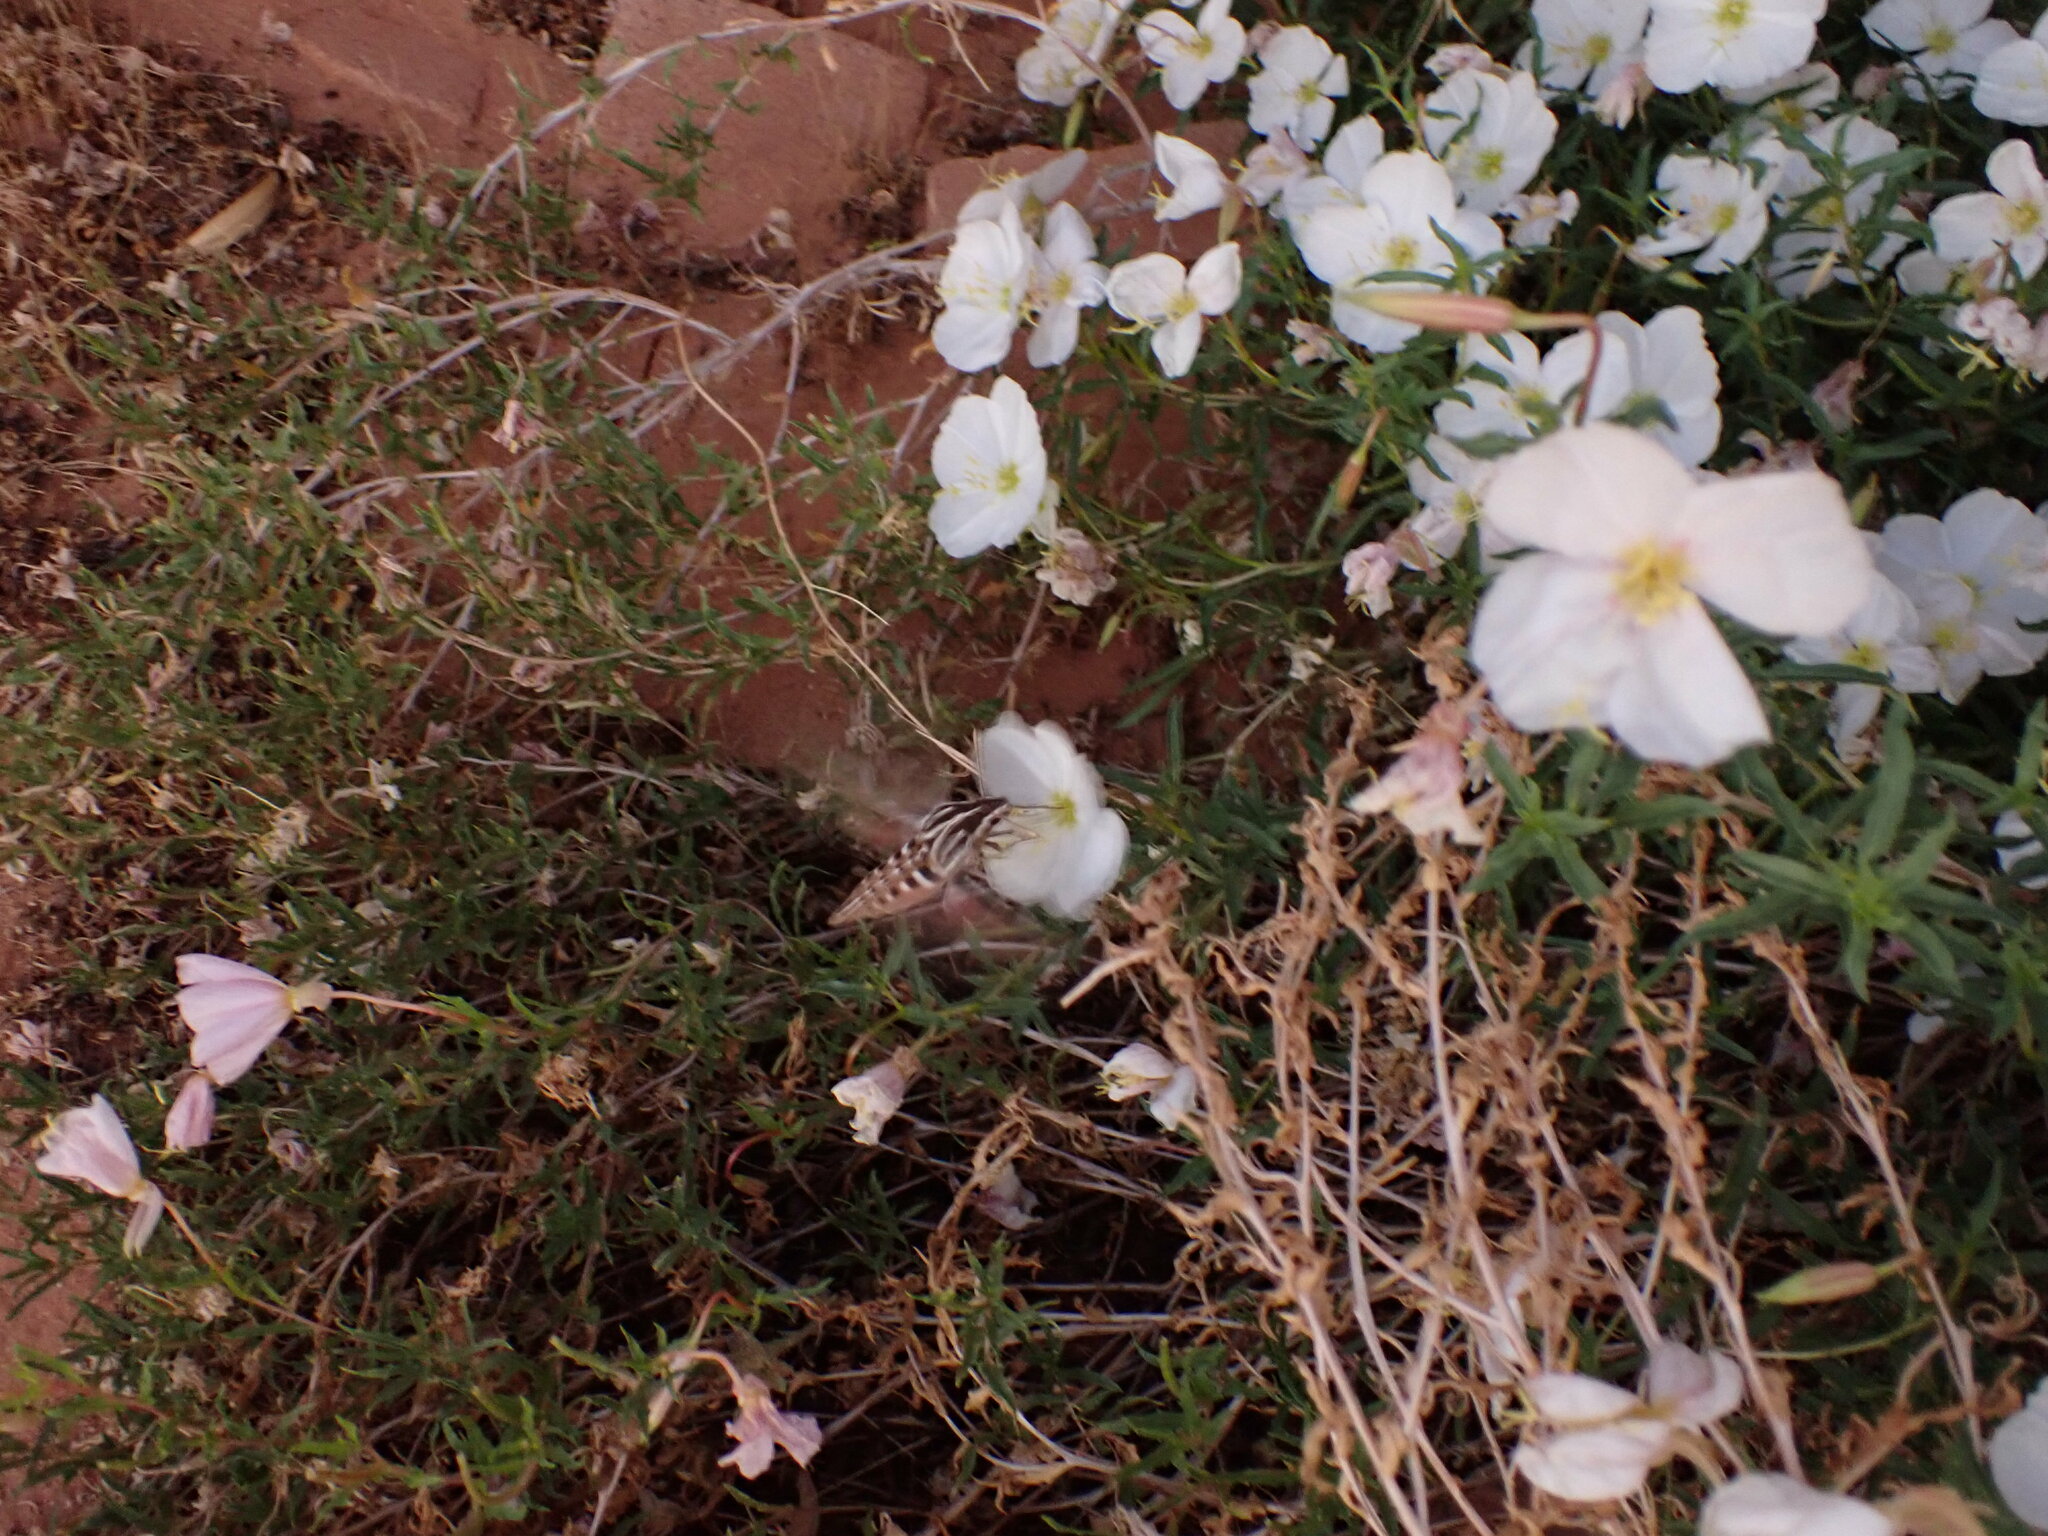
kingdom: Animalia
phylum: Arthropoda
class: Insecta
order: Lepidoptera
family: Sphingidae
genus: Hyles
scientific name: Hyles lineata
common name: White-lined sphinx
